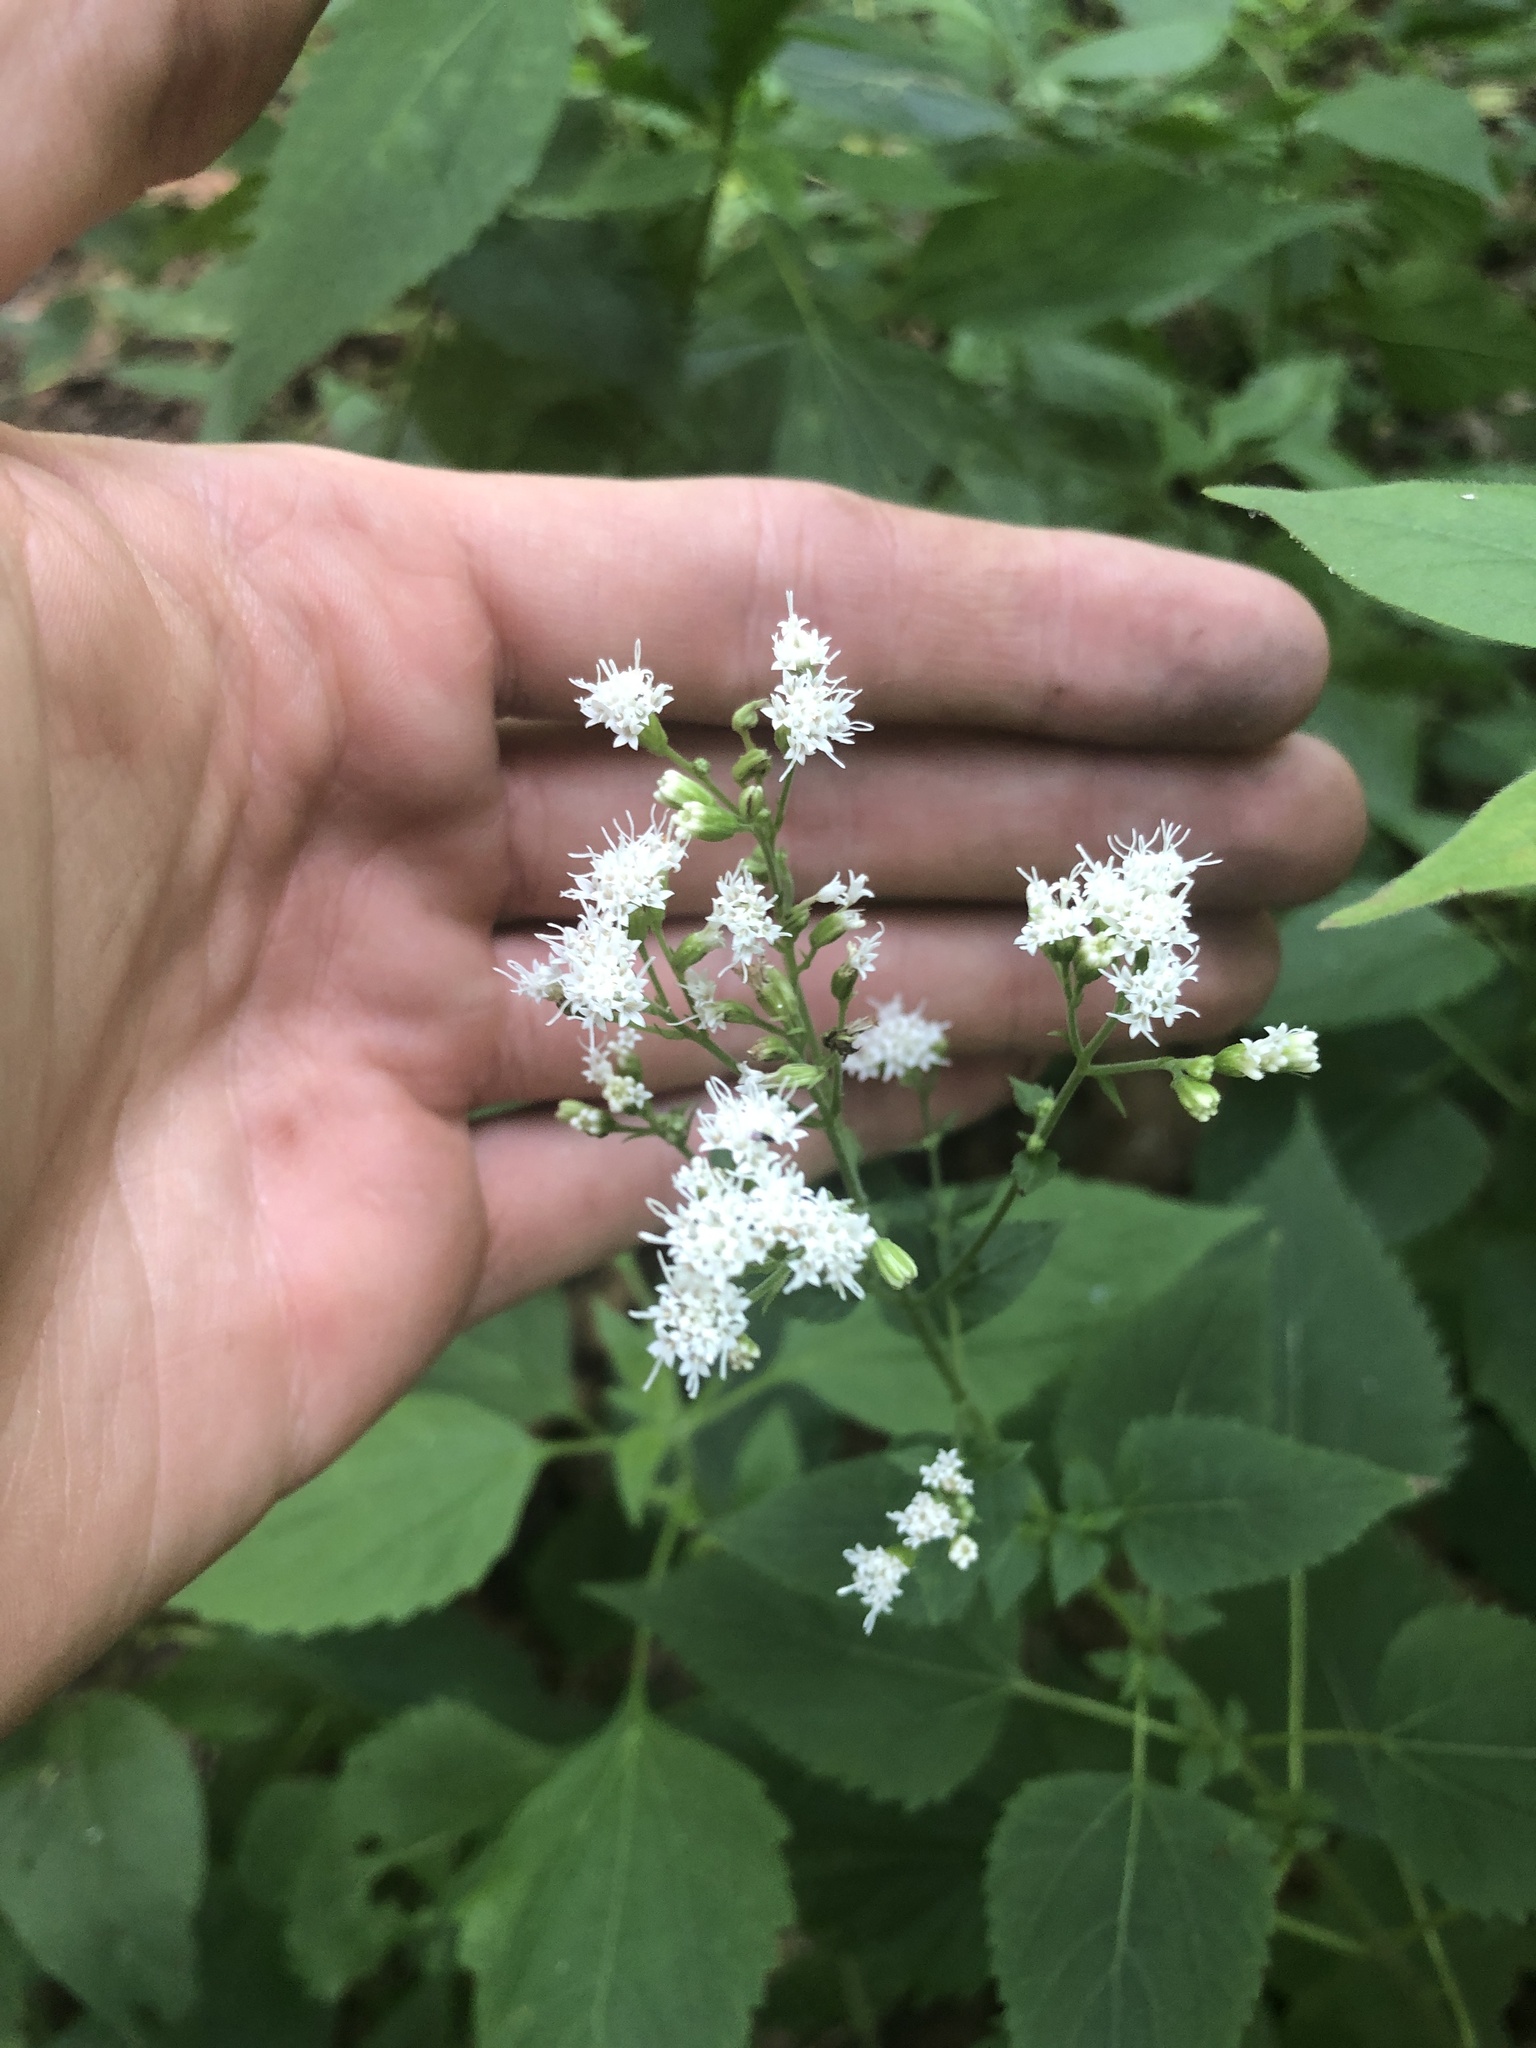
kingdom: Plantae
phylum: Tracheophyta
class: Magnoliopsida
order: Asterales
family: Asteraceae
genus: Ageratina
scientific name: Ageratina altissima
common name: White snakeroot
